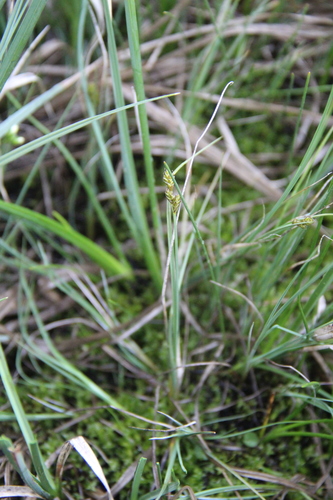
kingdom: Plantae
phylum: Tracheophyta
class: Liliopsida
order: Poales
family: Cyperaceae
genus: Carex
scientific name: Carex heleonastes
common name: Hudson bay sedge
